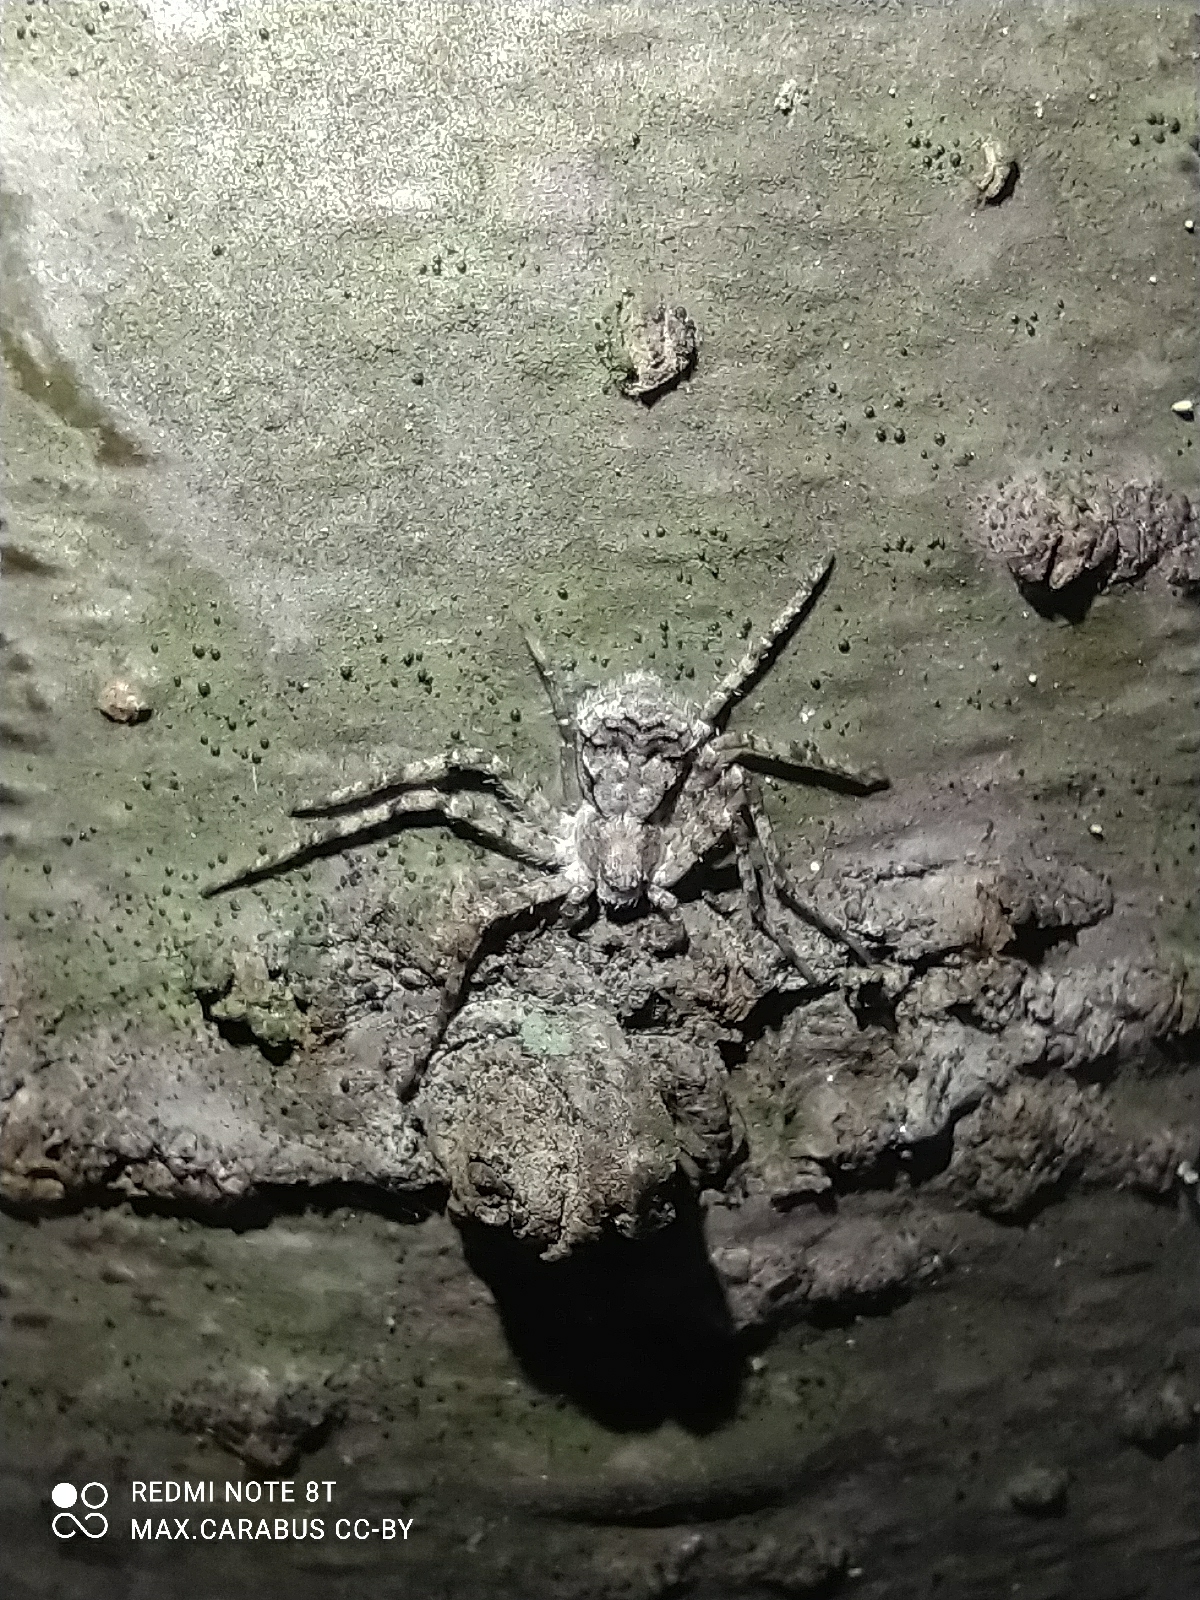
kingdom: Animalia
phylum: Arthropoda
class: Arachnida
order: Araneae
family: Philodromidae
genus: Philodromus
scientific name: Philodromus margaritatus
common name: Lichen running-spider
